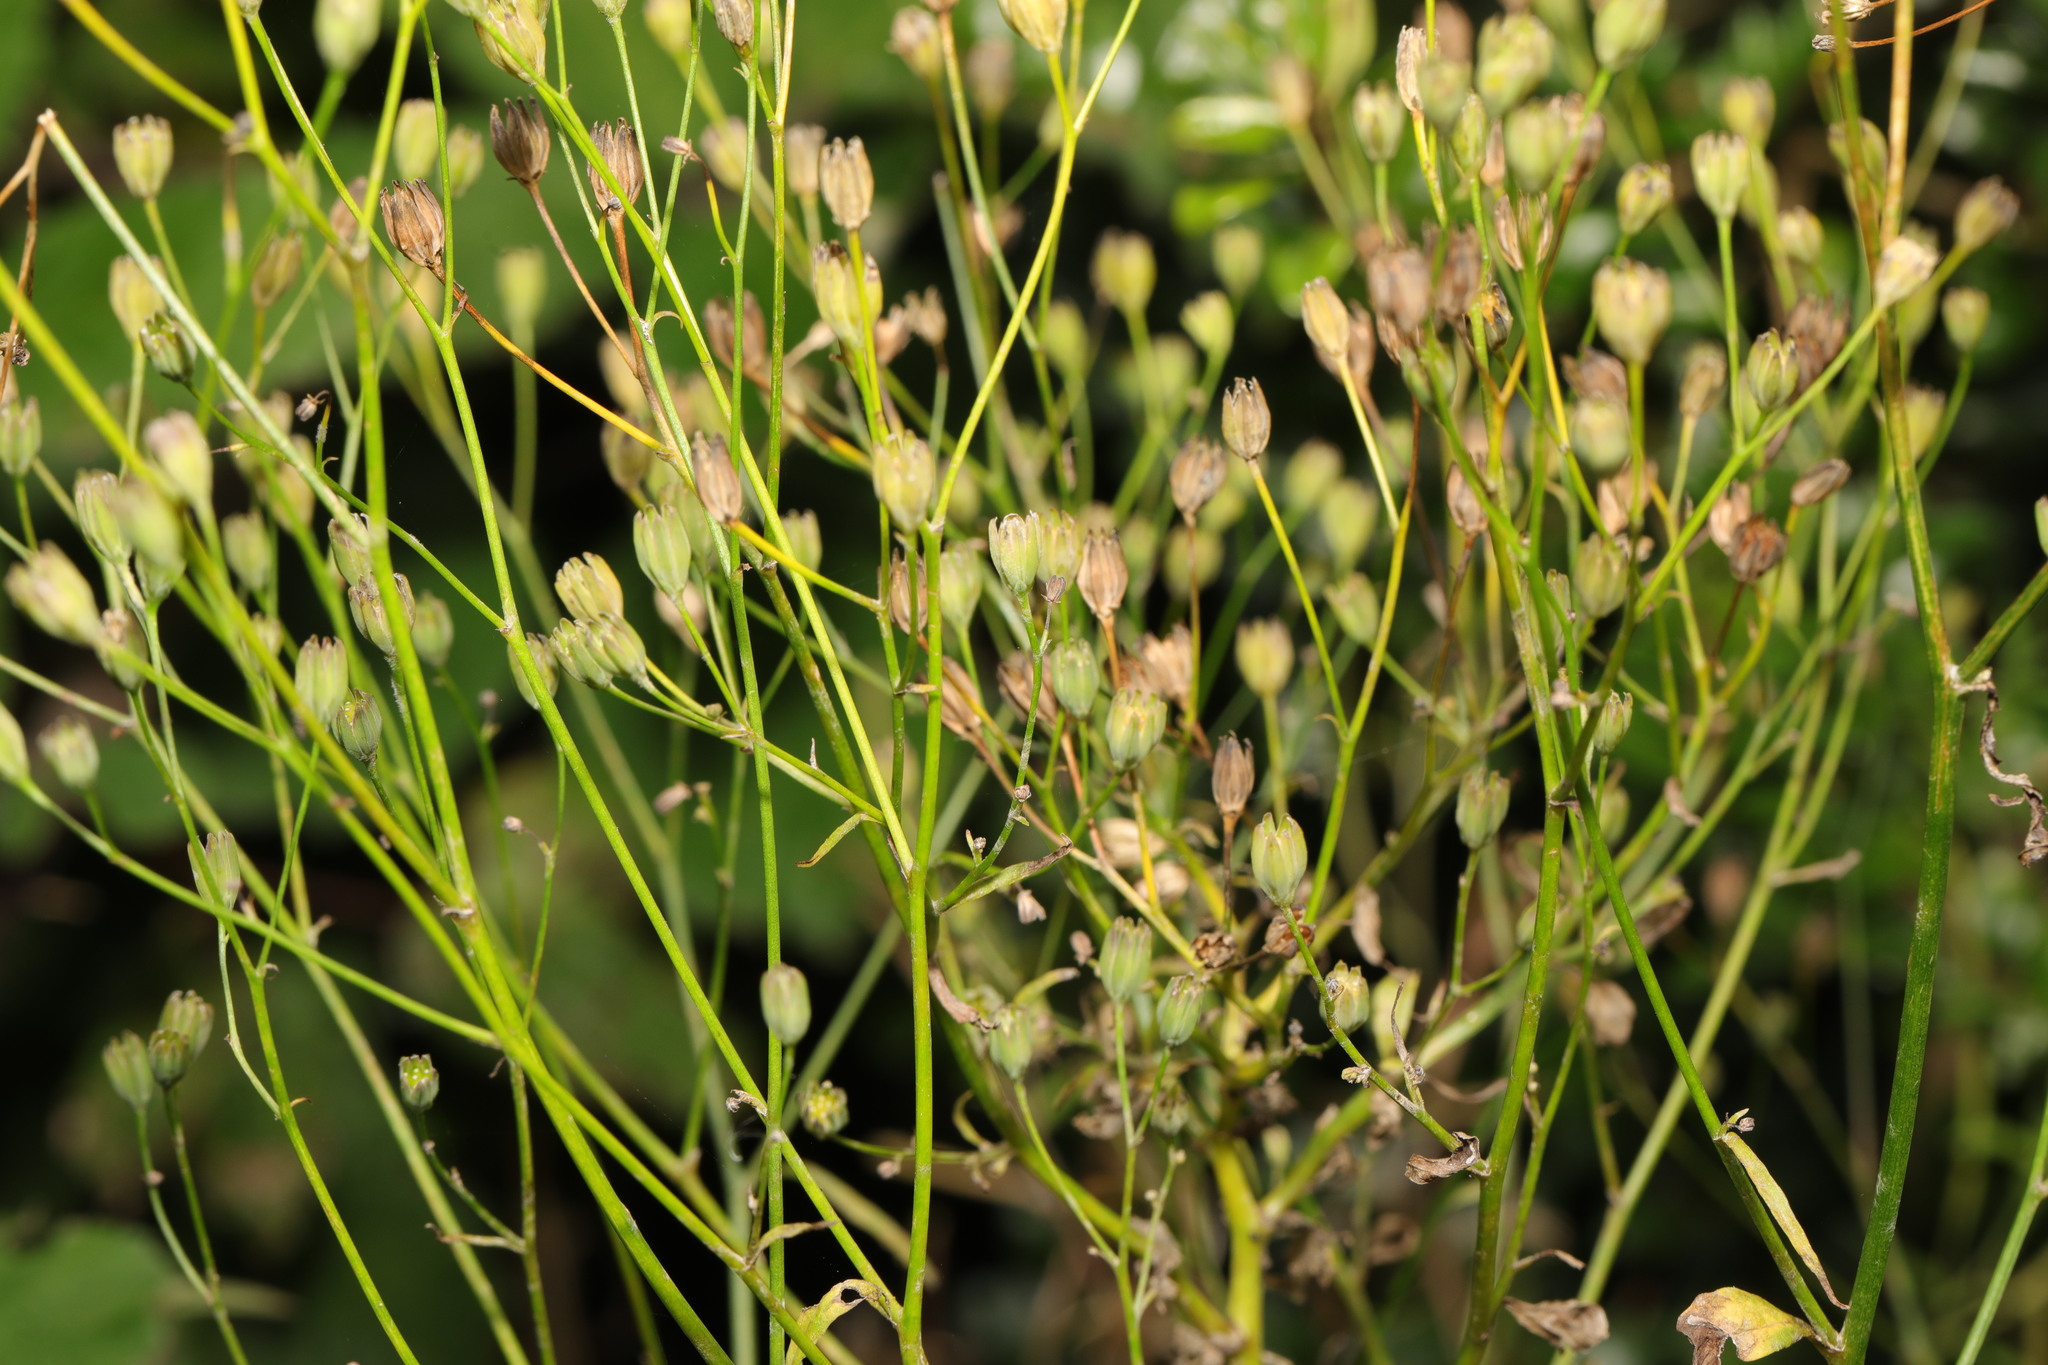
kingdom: Plantae
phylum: Tracheophyta
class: Magnoliopsida
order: Asterales
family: Asteraceae
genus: Lapsana
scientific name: Lapsana communis
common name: Nipplewort
